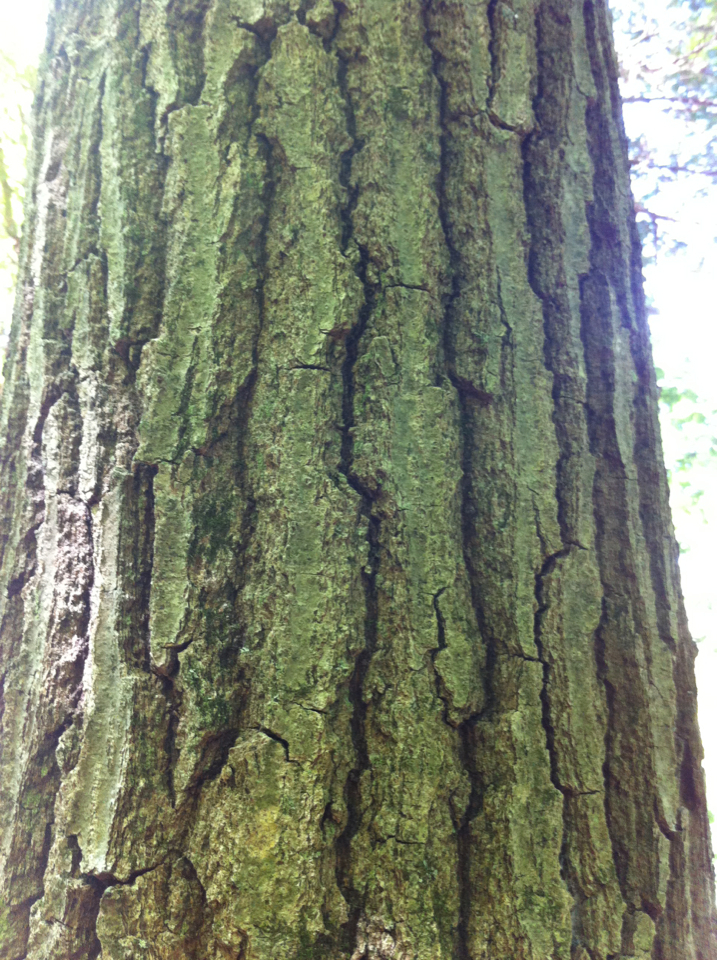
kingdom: Plantae
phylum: Tracheophyta
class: Magnoliopsida
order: Fagales
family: Fagaceae
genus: Quercus
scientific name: Quercus rubra
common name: Red oak
